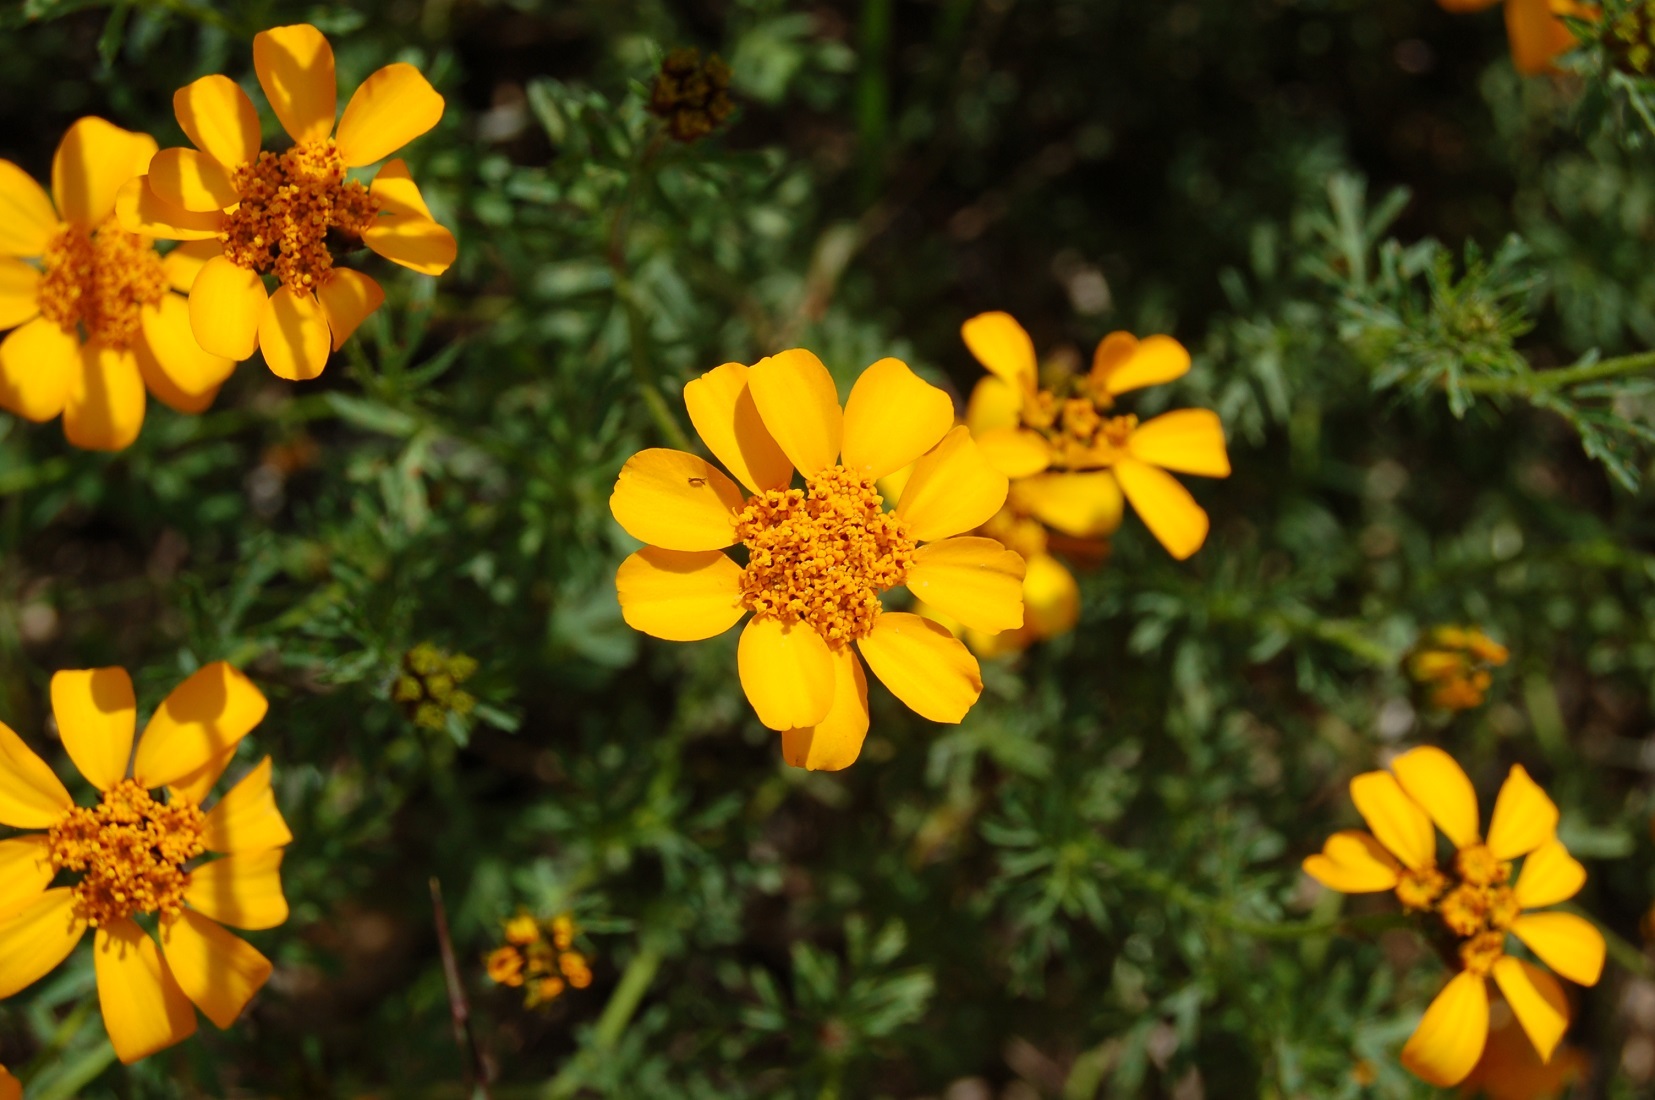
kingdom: Plantae
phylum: Tracheophyta
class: Magnoliopsida
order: Asterales
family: Asteraceae
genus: Dyssodia
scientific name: Dyssodia decipiens
